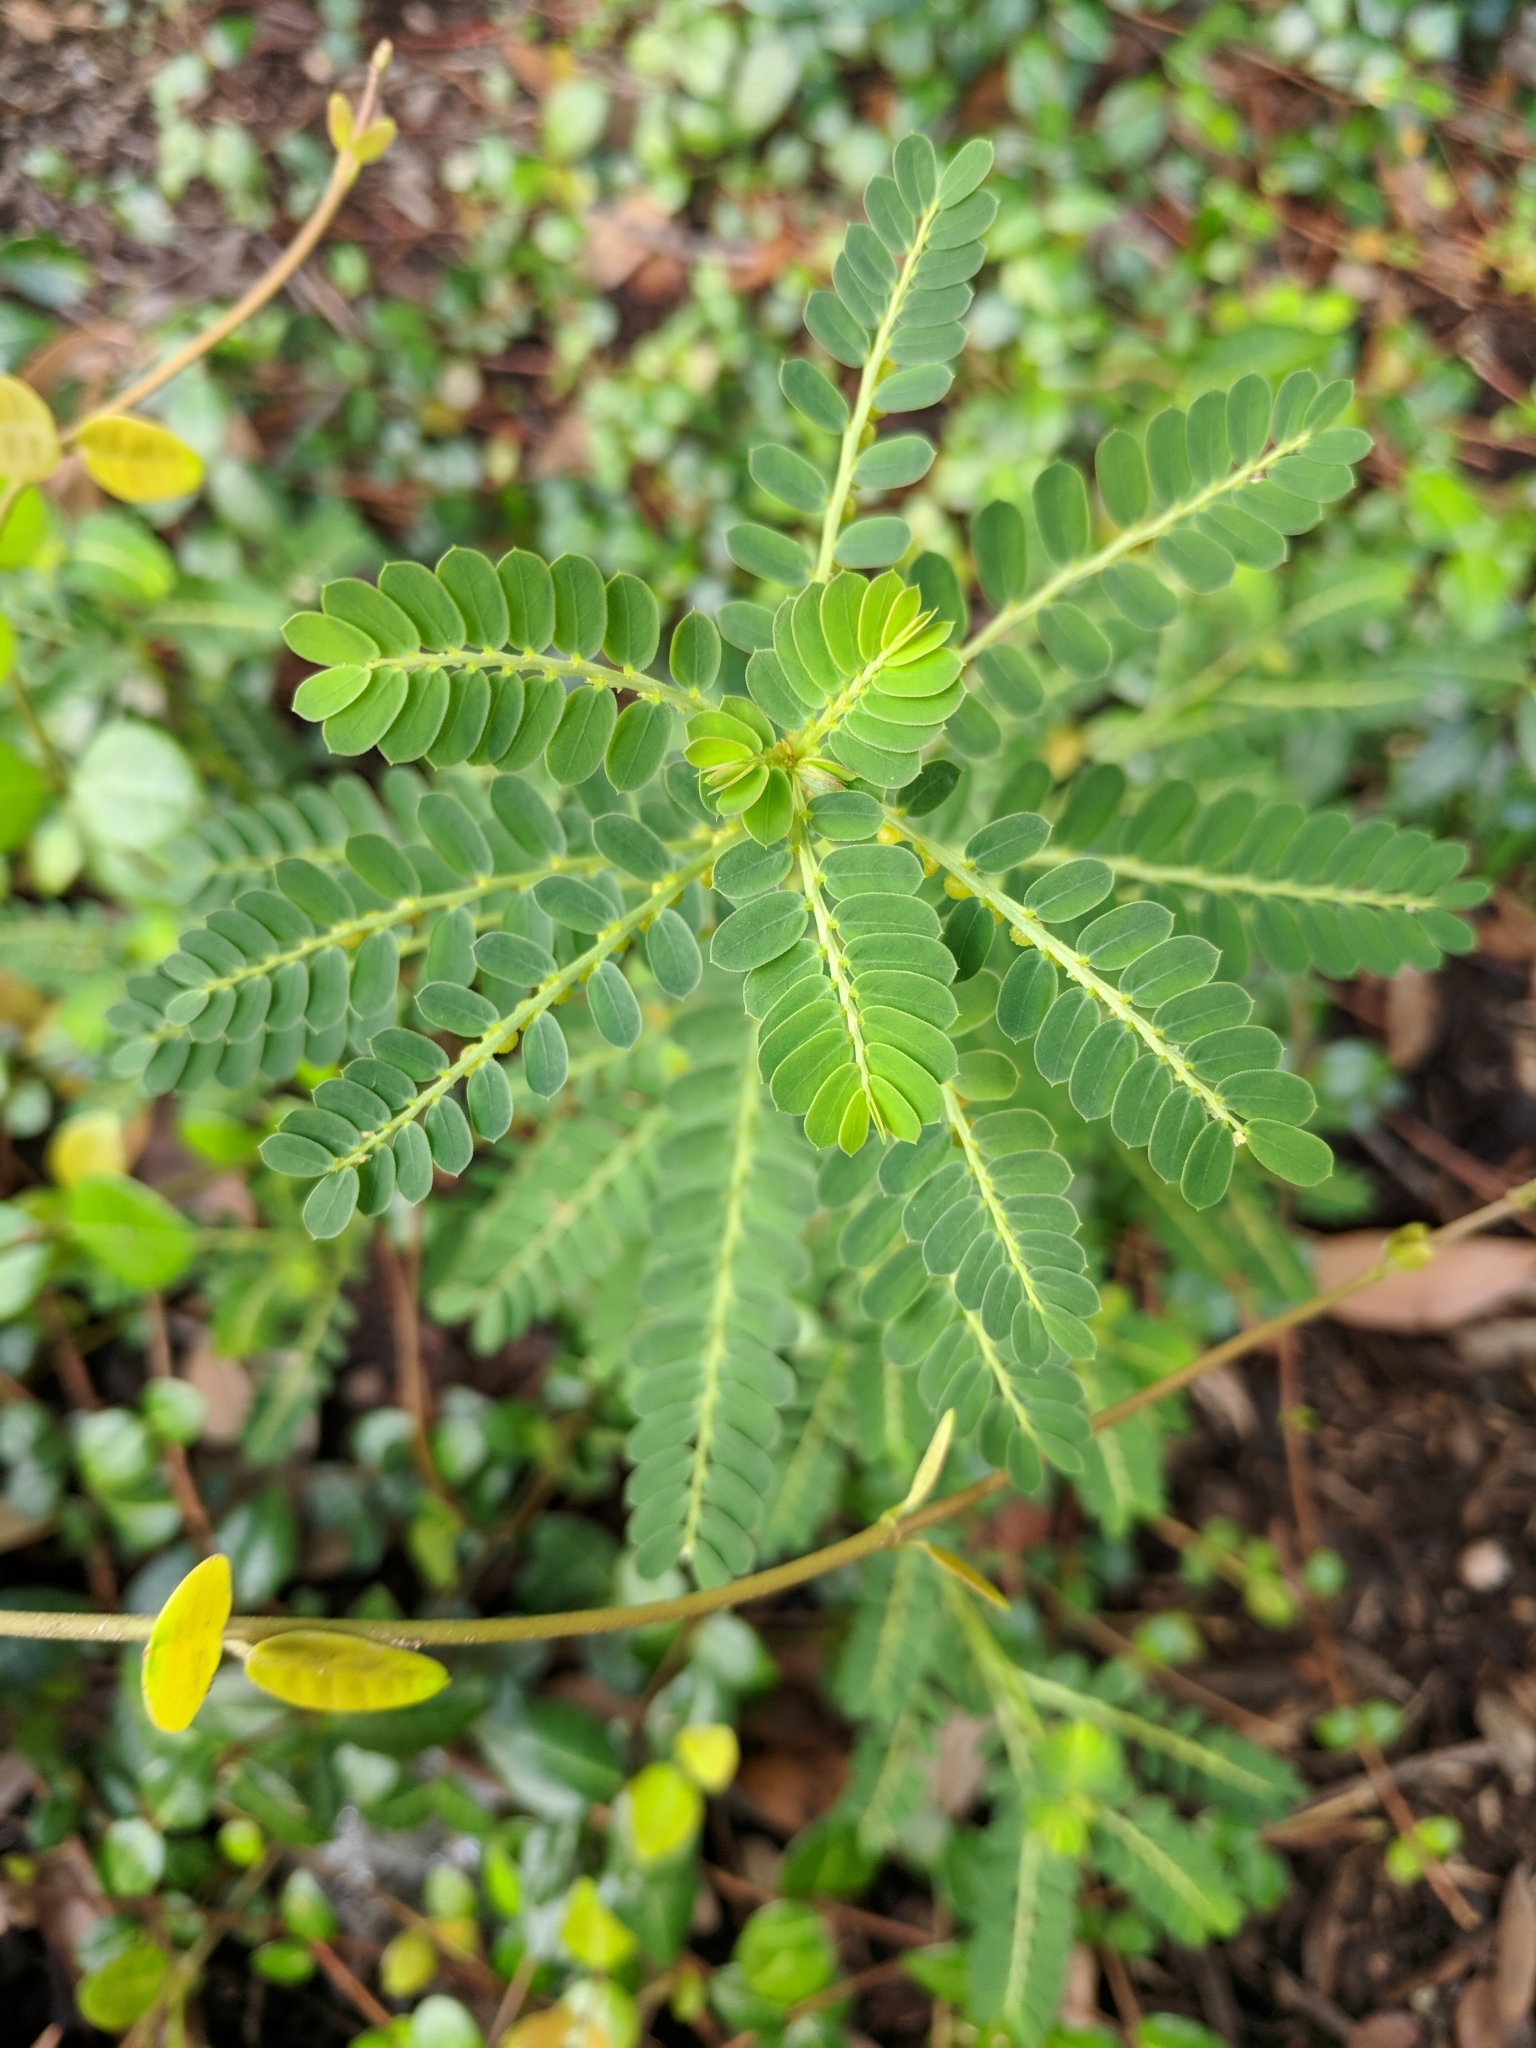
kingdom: Plantae
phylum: Tracheophyta
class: Magnoliopsida
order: Malpighiales
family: Phyllanthaceae
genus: Phyllanthus
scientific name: Phyllanthus urinaria
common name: Chamber bitter
